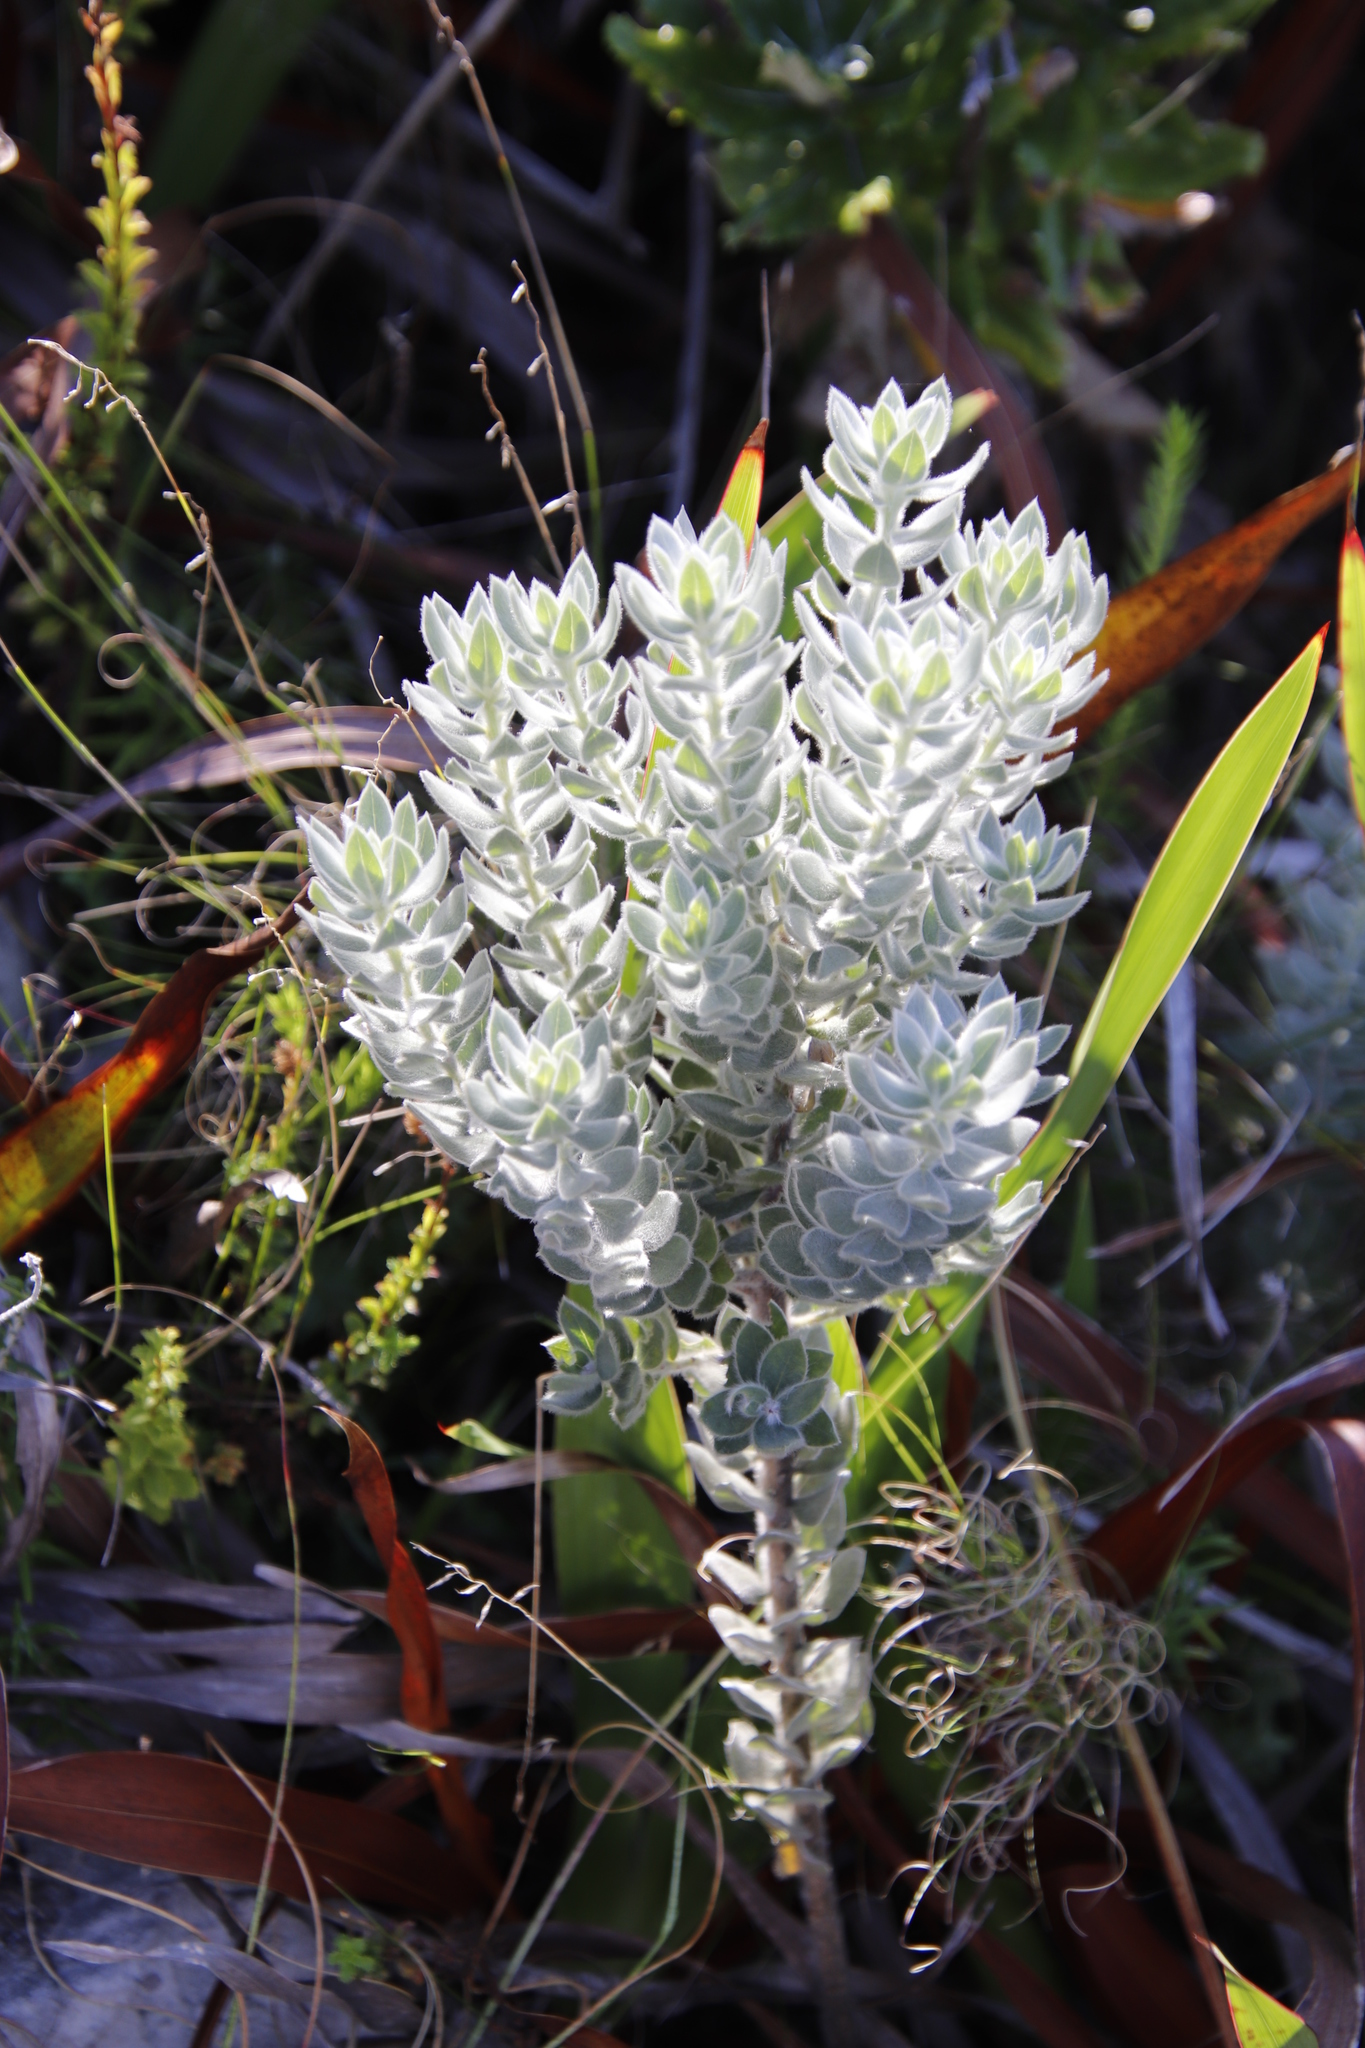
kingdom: Plantae
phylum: Tracheophyta
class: Magnoliopsida
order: Fabales
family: Fabaceae
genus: Xiphotheca
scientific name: Xiphotheca fruticosa
